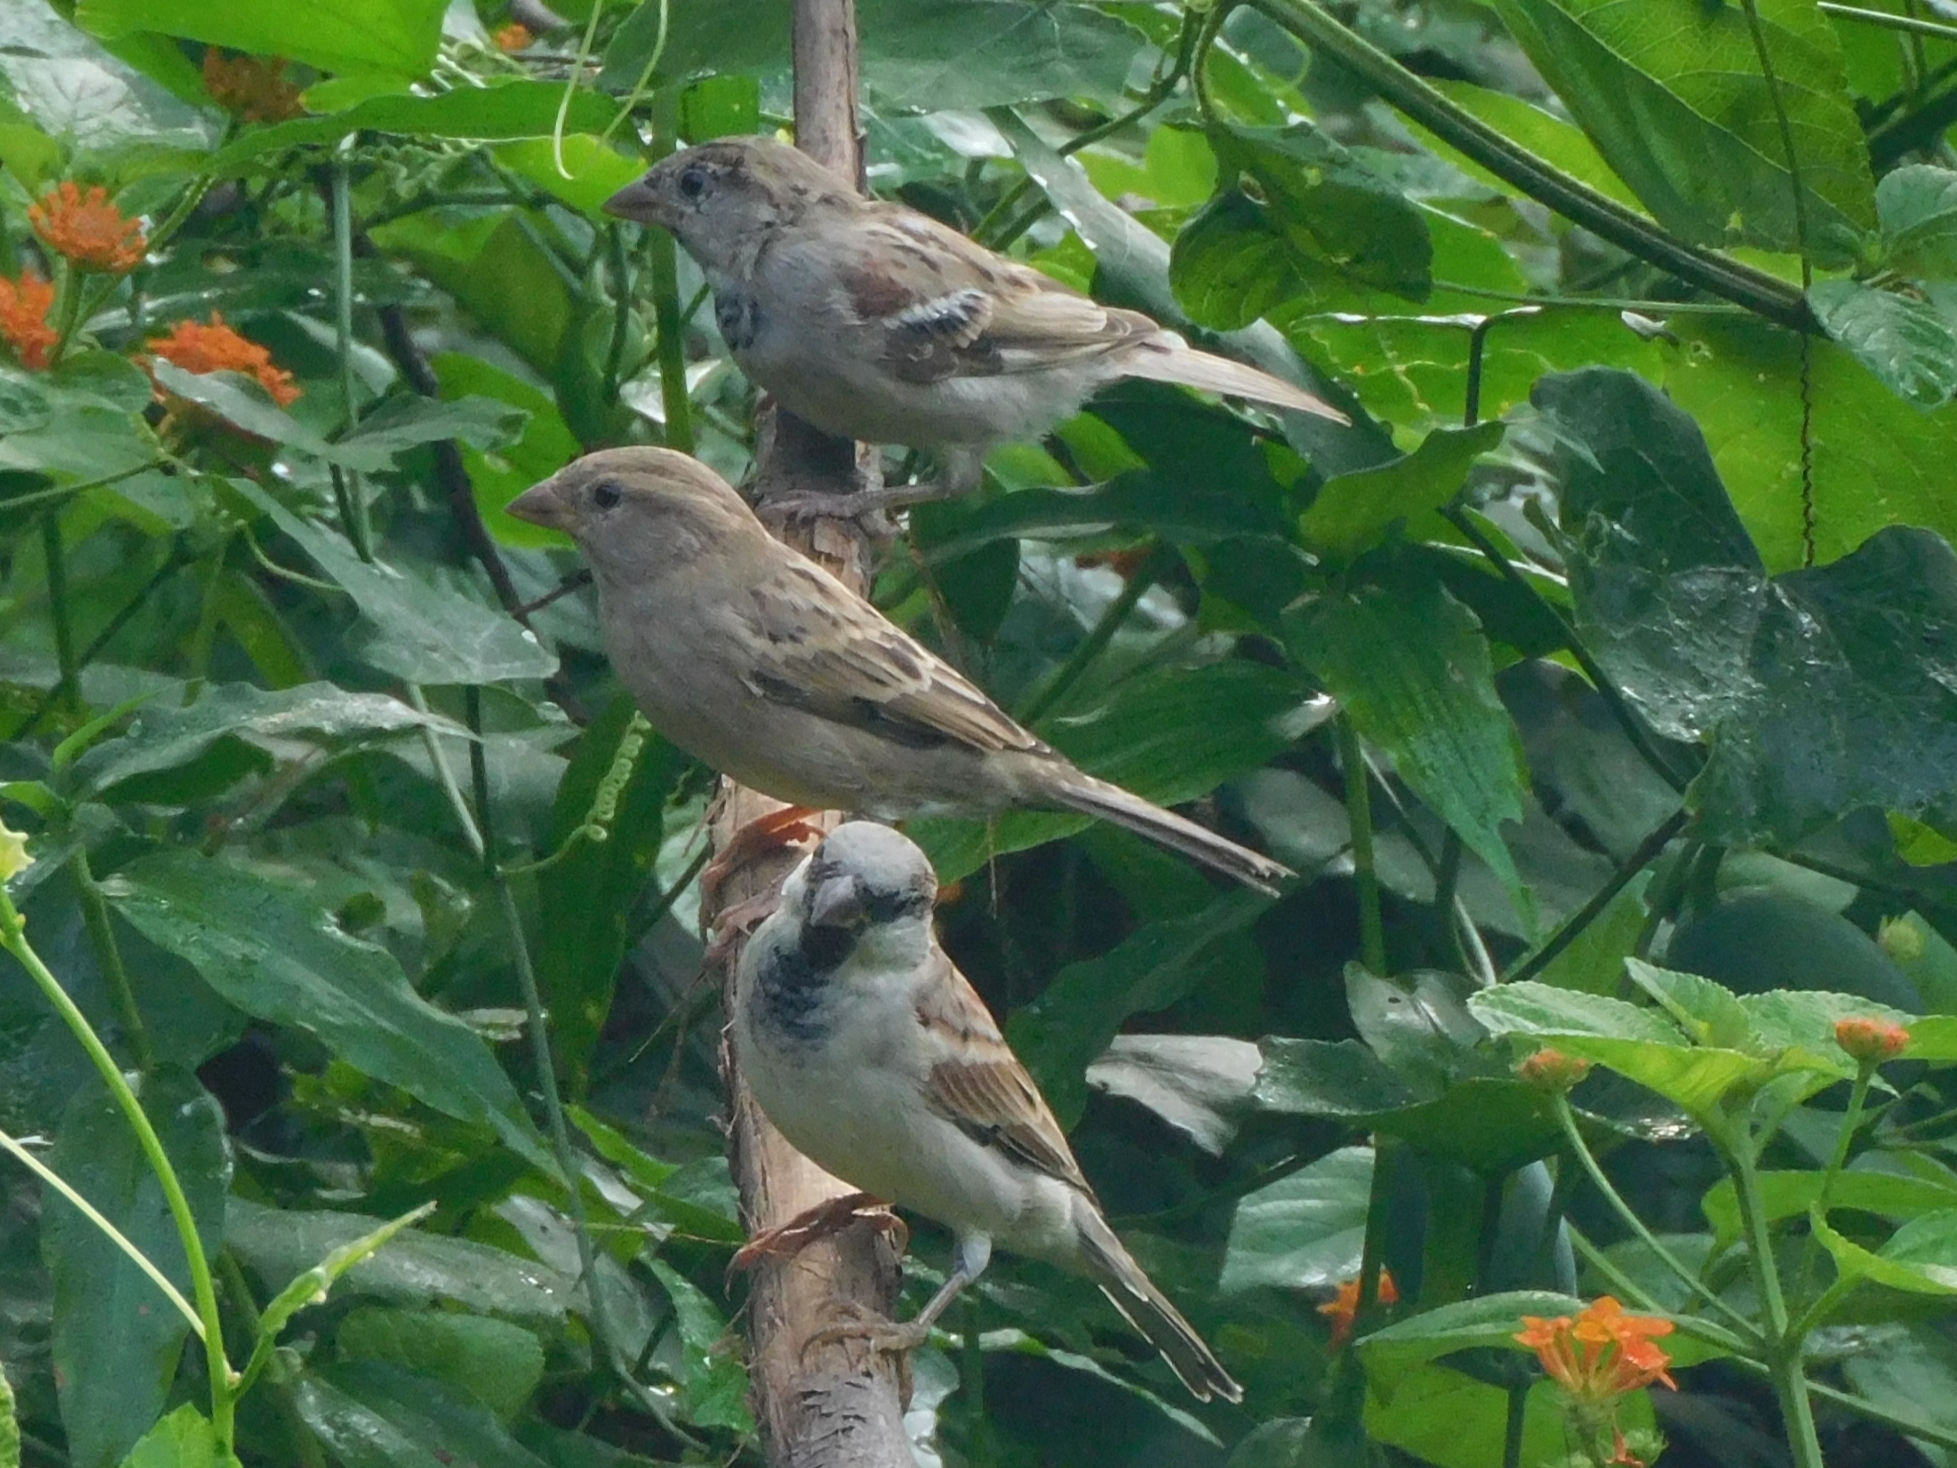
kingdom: Animalia
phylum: Chordata
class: Aves
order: Passeriformes
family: Passeridae
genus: Passer
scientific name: Passer domesticus
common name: House sparrow
